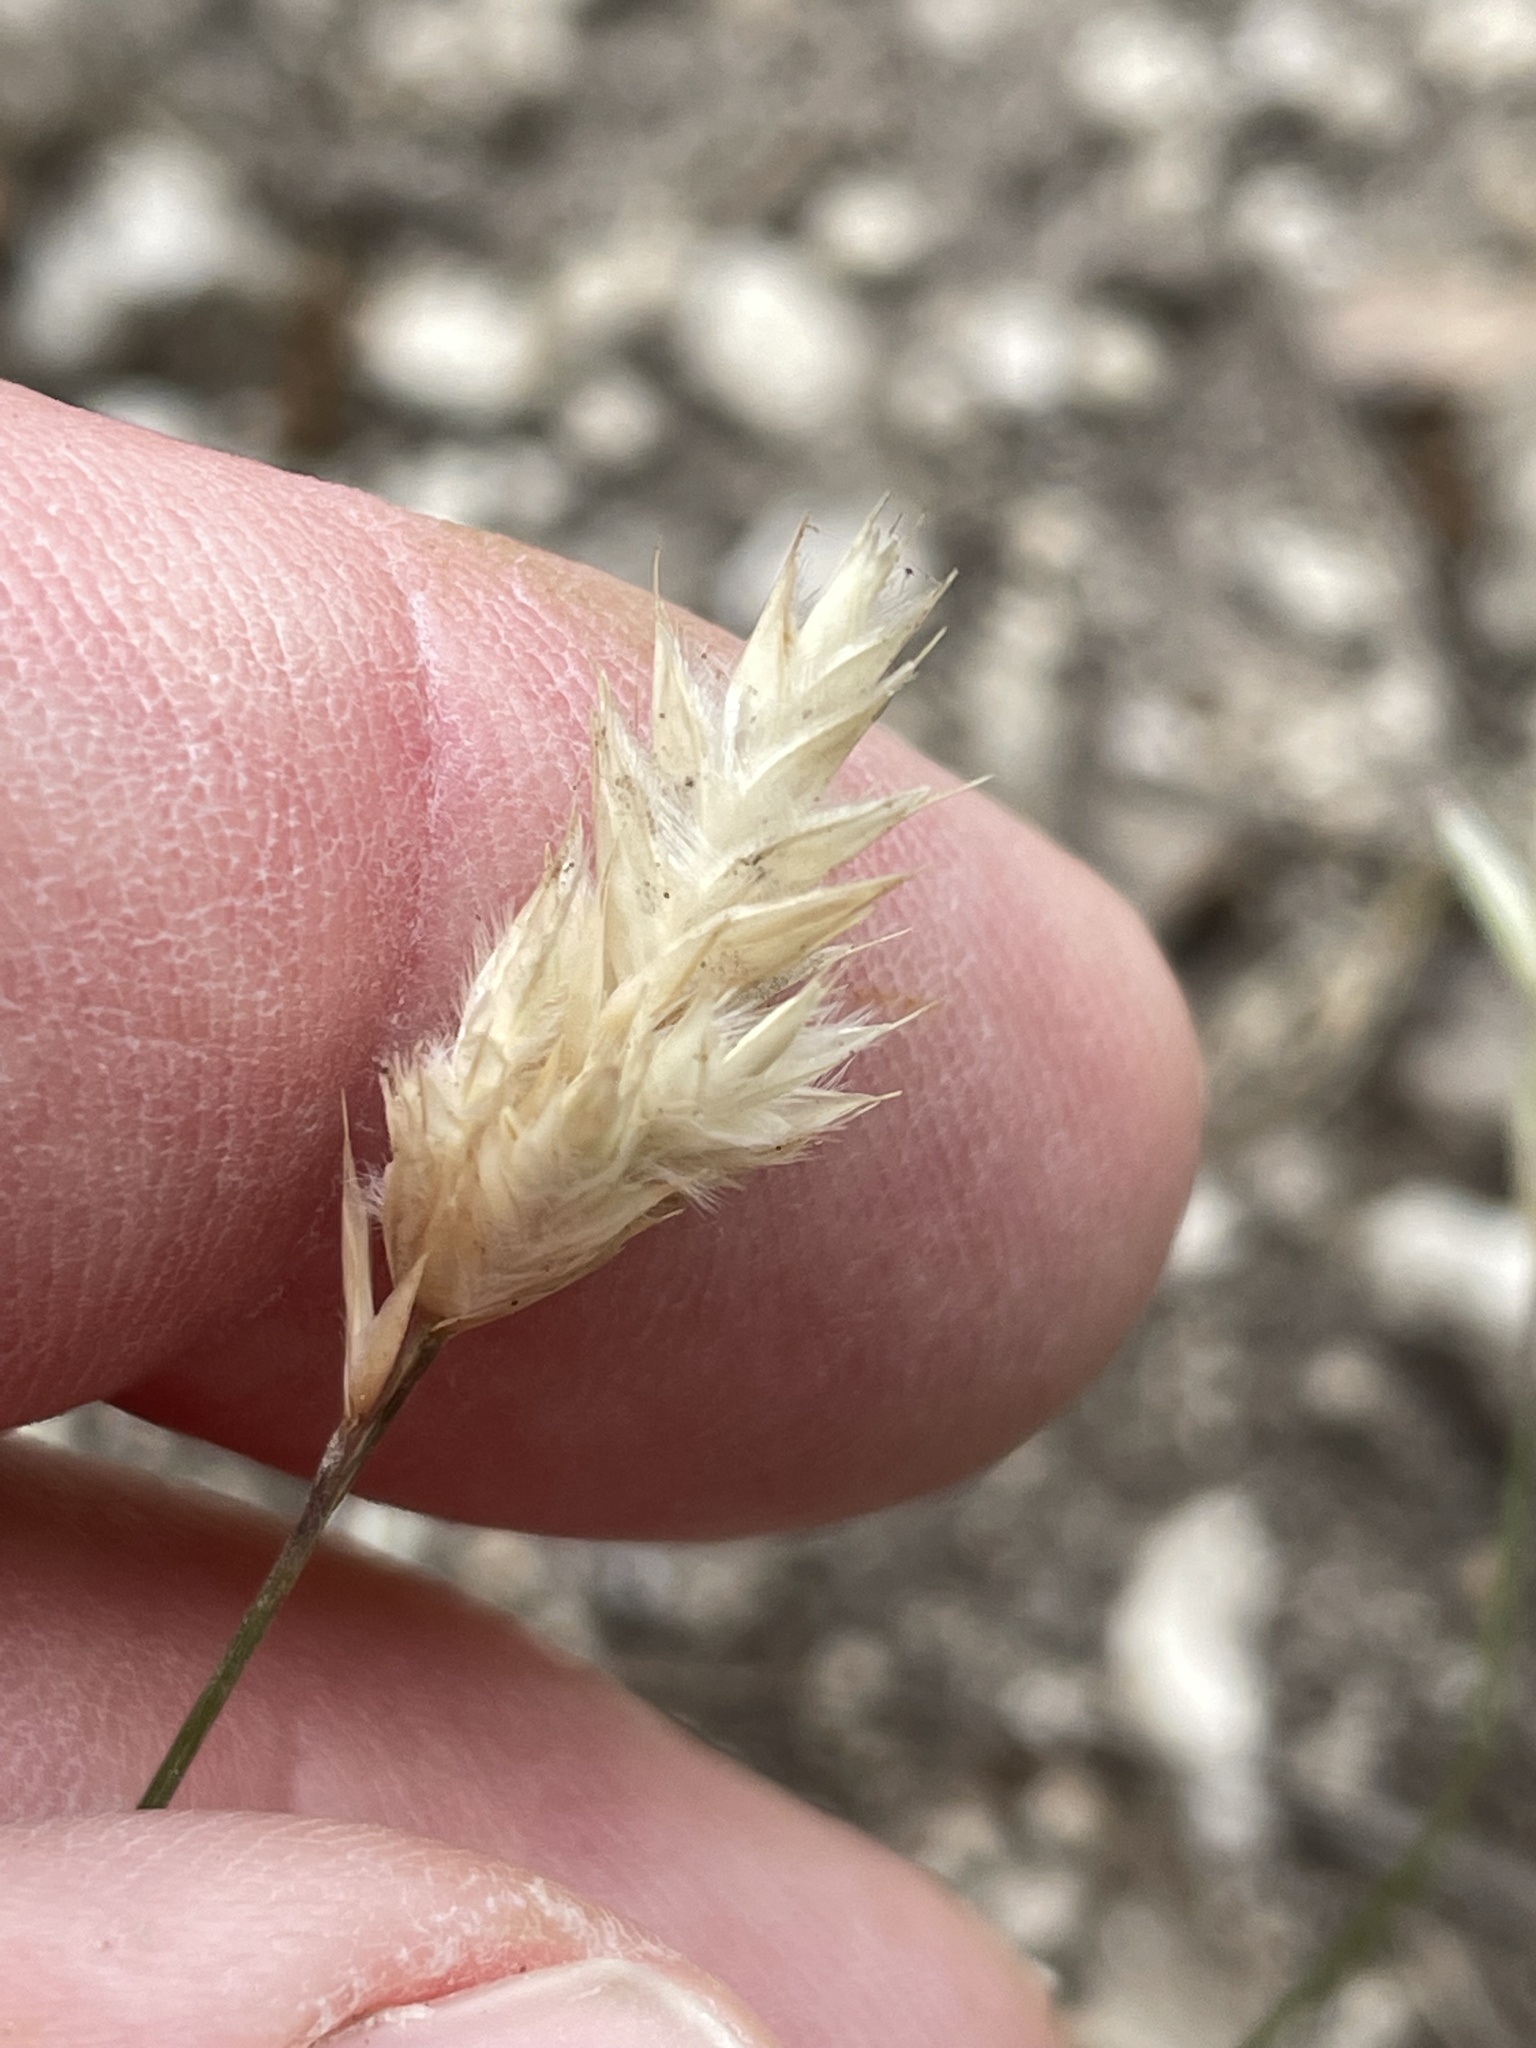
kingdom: Plantae
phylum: Tracheophyta
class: Liliopsida
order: Poales
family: Poaceae
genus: Erioneuron
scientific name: Erioneuron pilosum
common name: Hairy woolly grass
